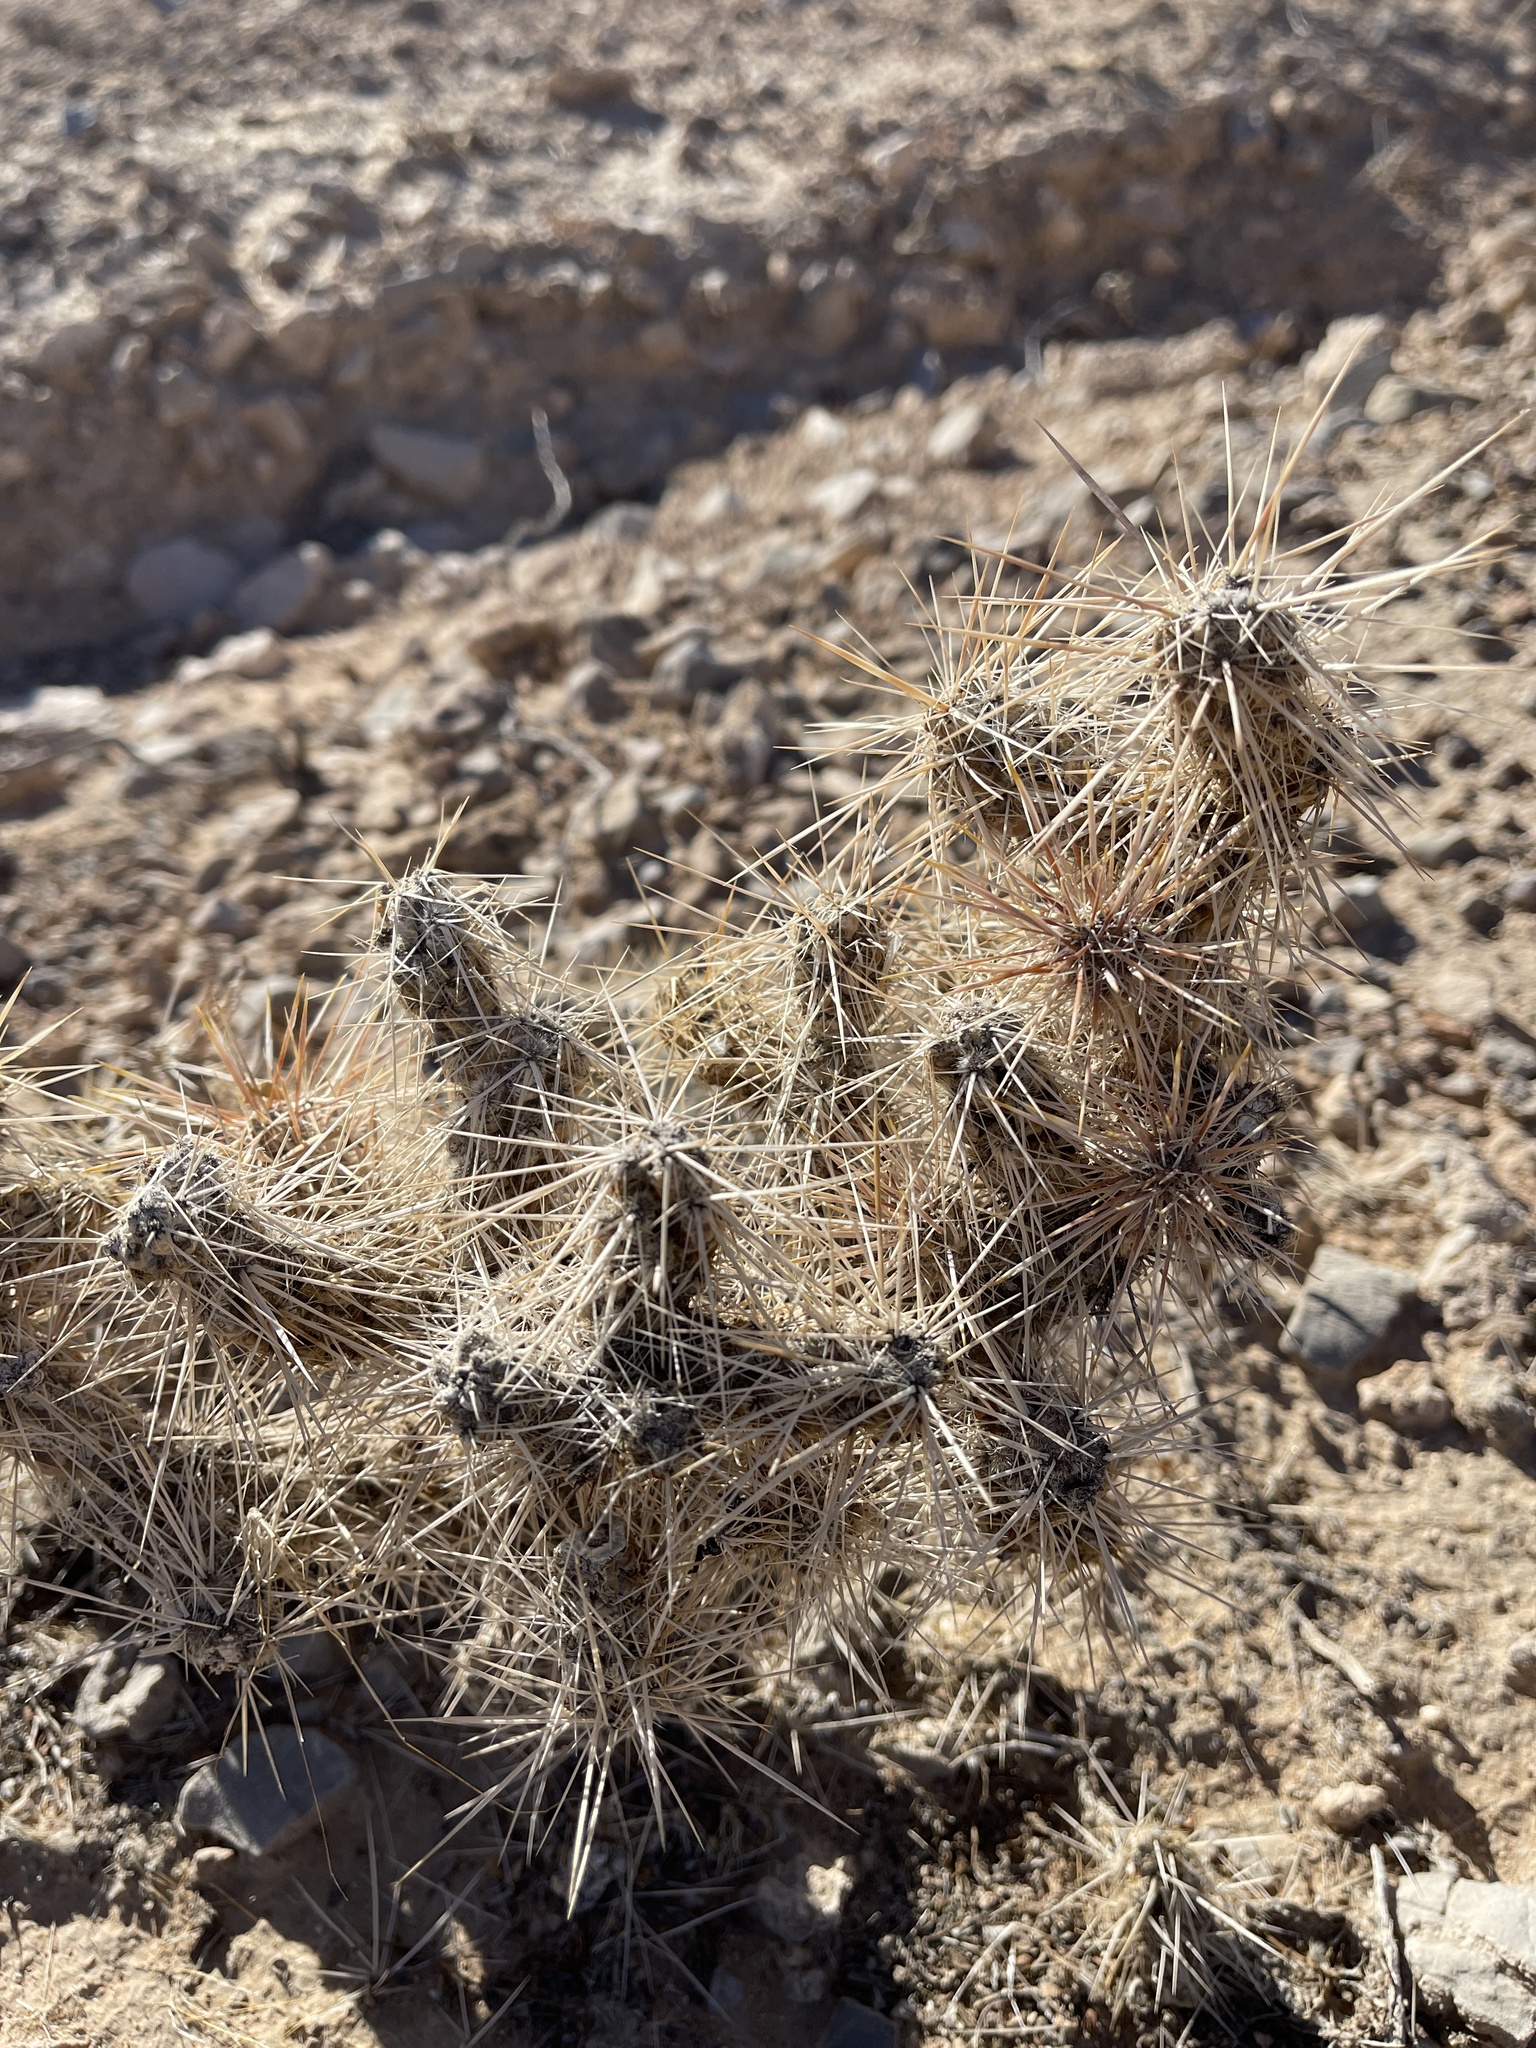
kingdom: Plantae
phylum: Tracheophyta
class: Magnoliopsida
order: Caryophyllales
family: Cactaceae
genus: Cylindropuntia
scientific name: Cylindropuntia echinocarpa
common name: Ground cholla
